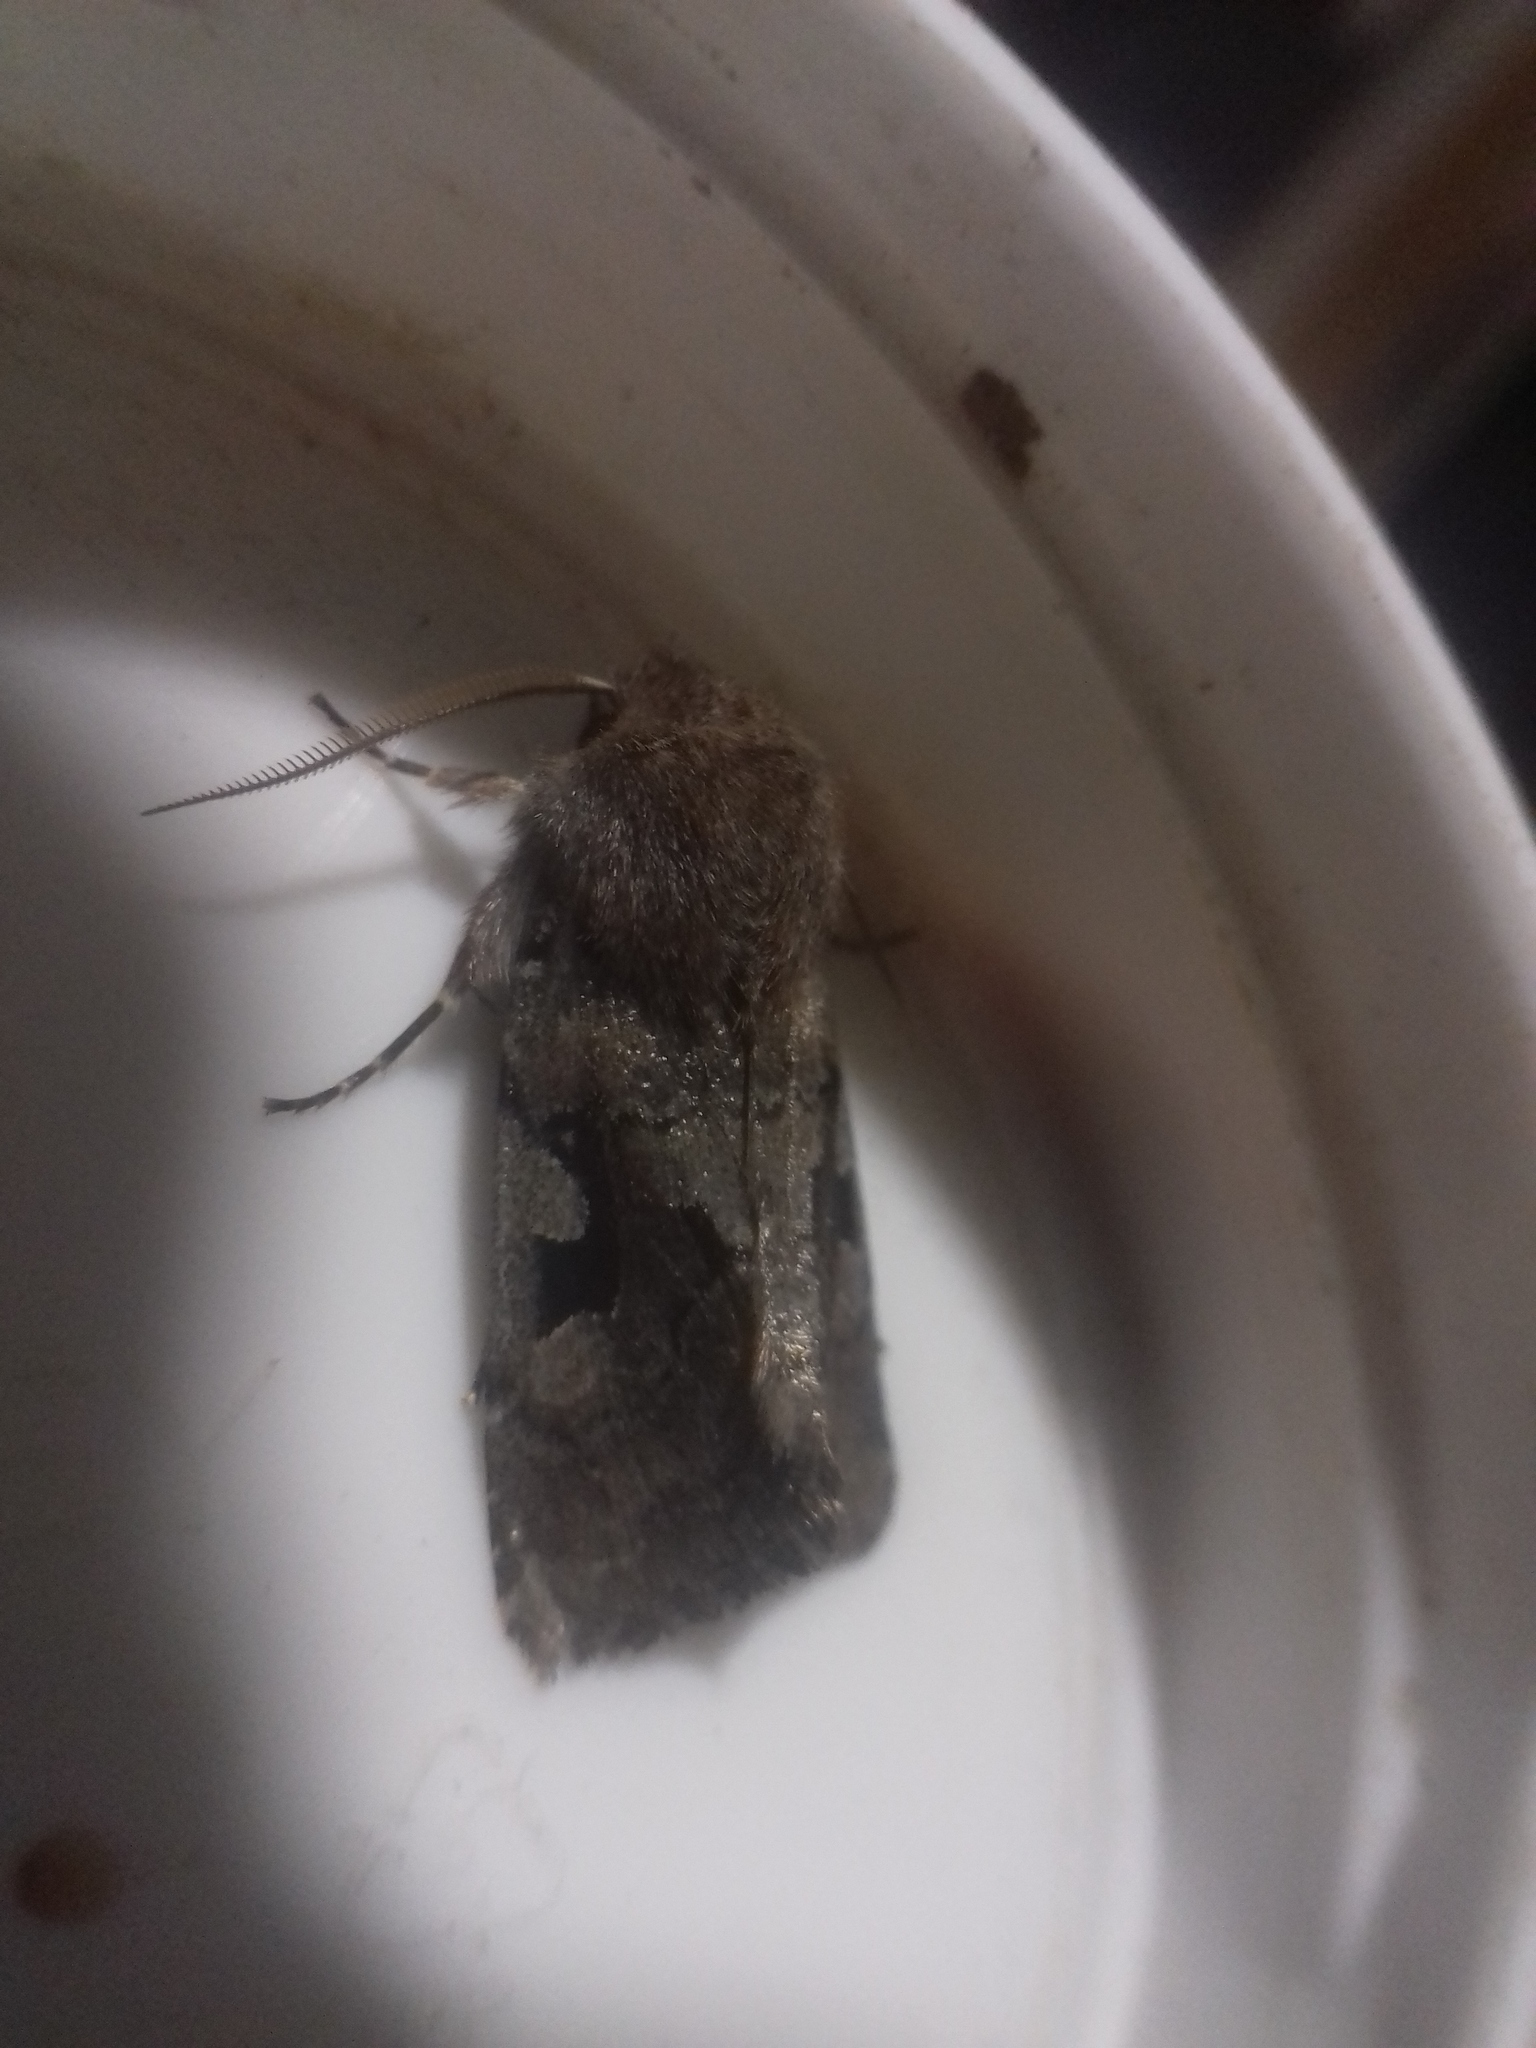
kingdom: Animalia
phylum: Arthropoda
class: Insecta
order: Lepidoptera
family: Noctuidae
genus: Orthosia
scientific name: Orthosia gothica
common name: Hebrew character
